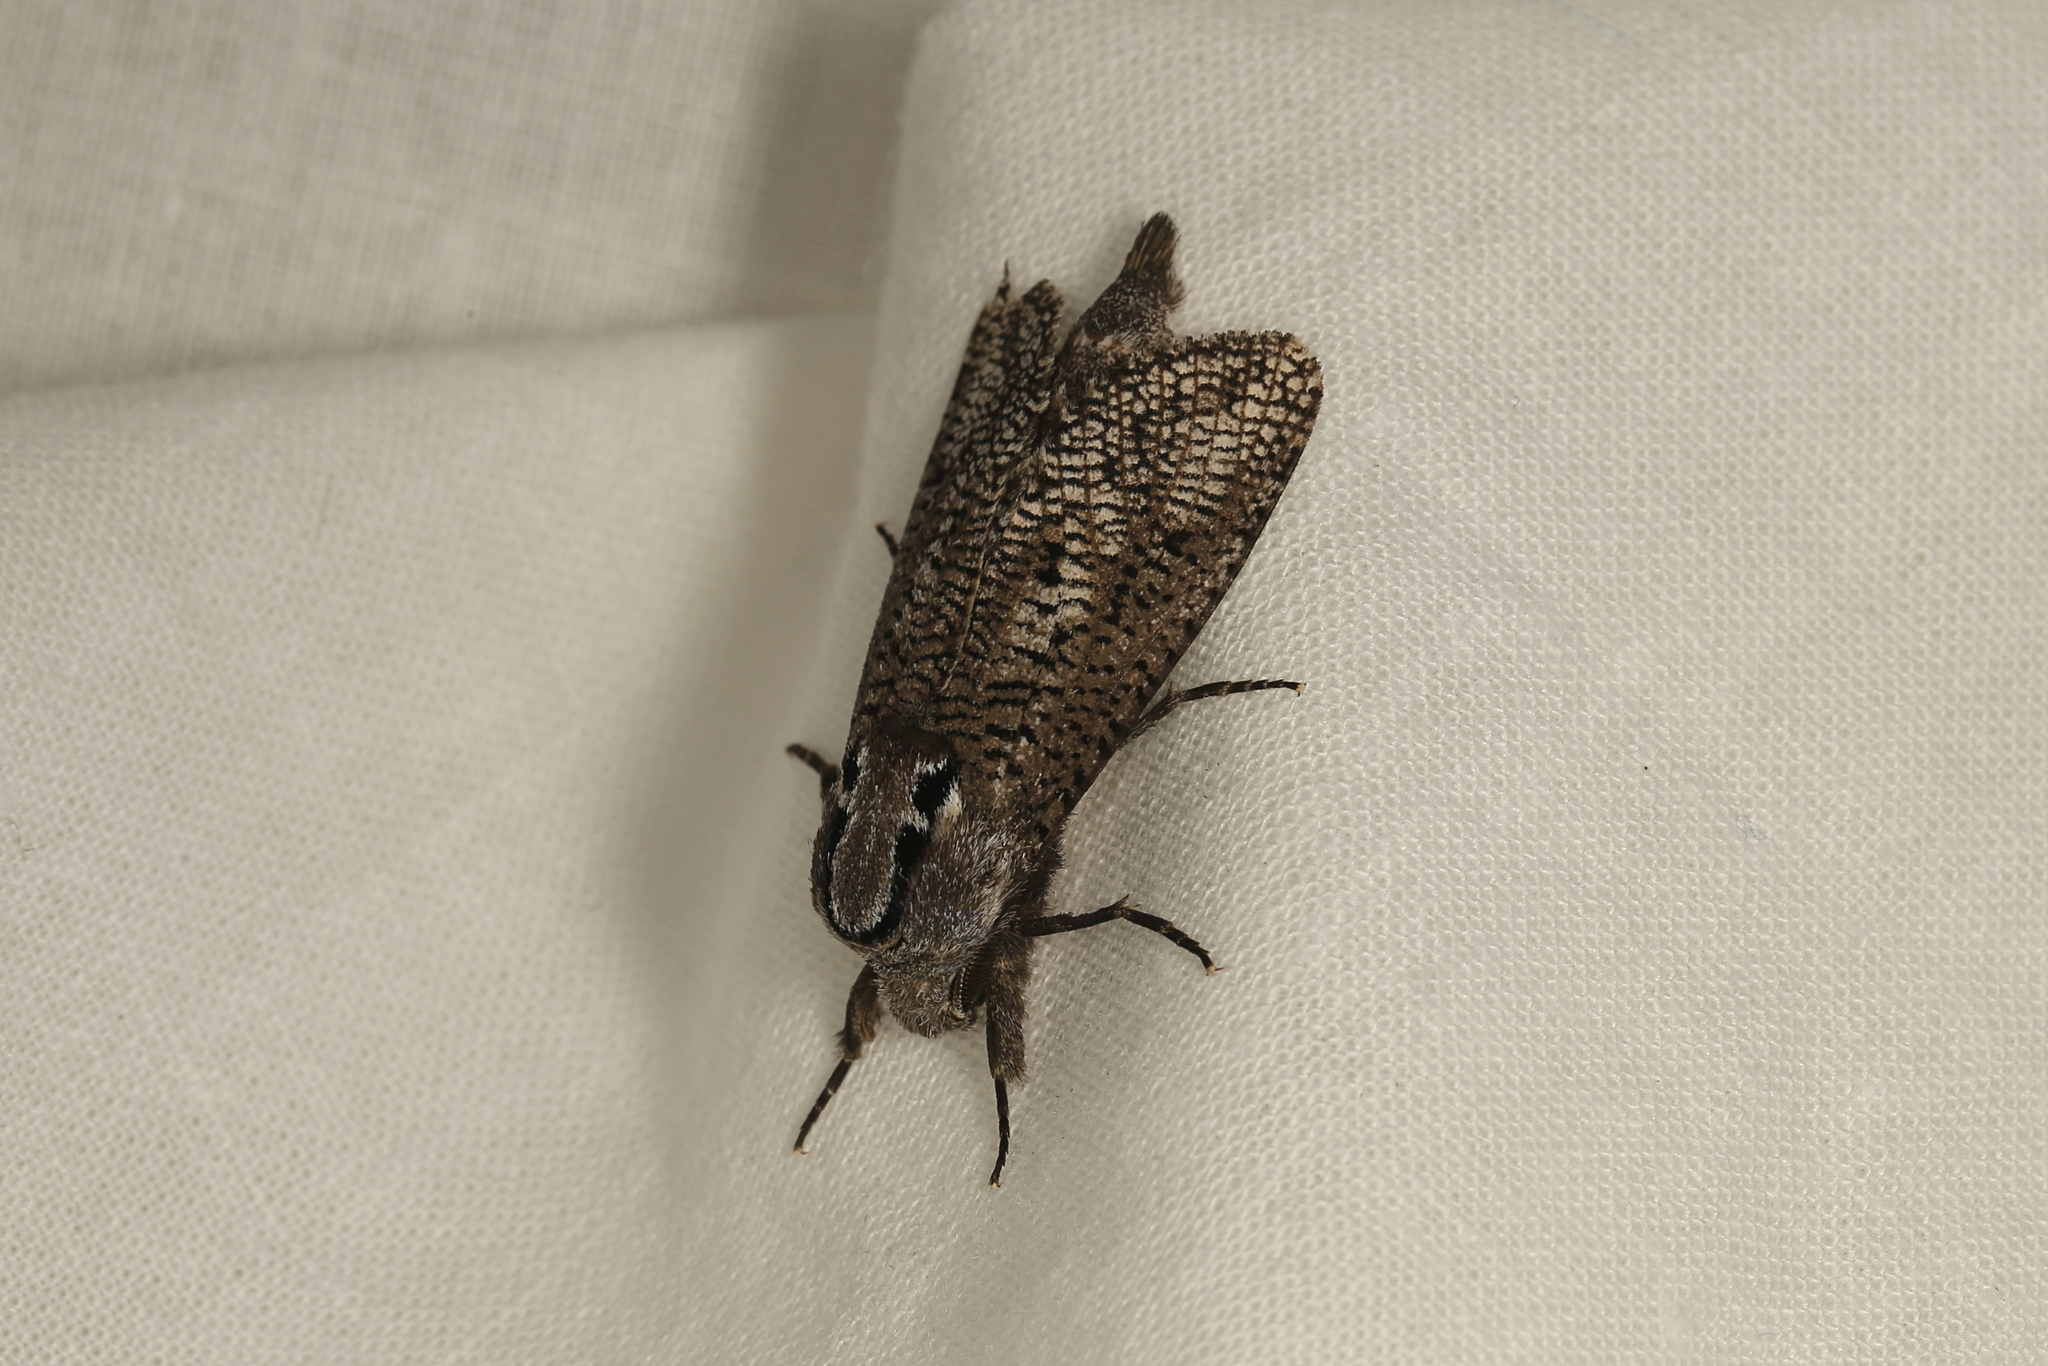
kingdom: Animalia
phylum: Arthropoda
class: Insecta
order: Lepidoptera
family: Cossidae
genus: Endoxyla
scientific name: Endoxyla biarpiti
